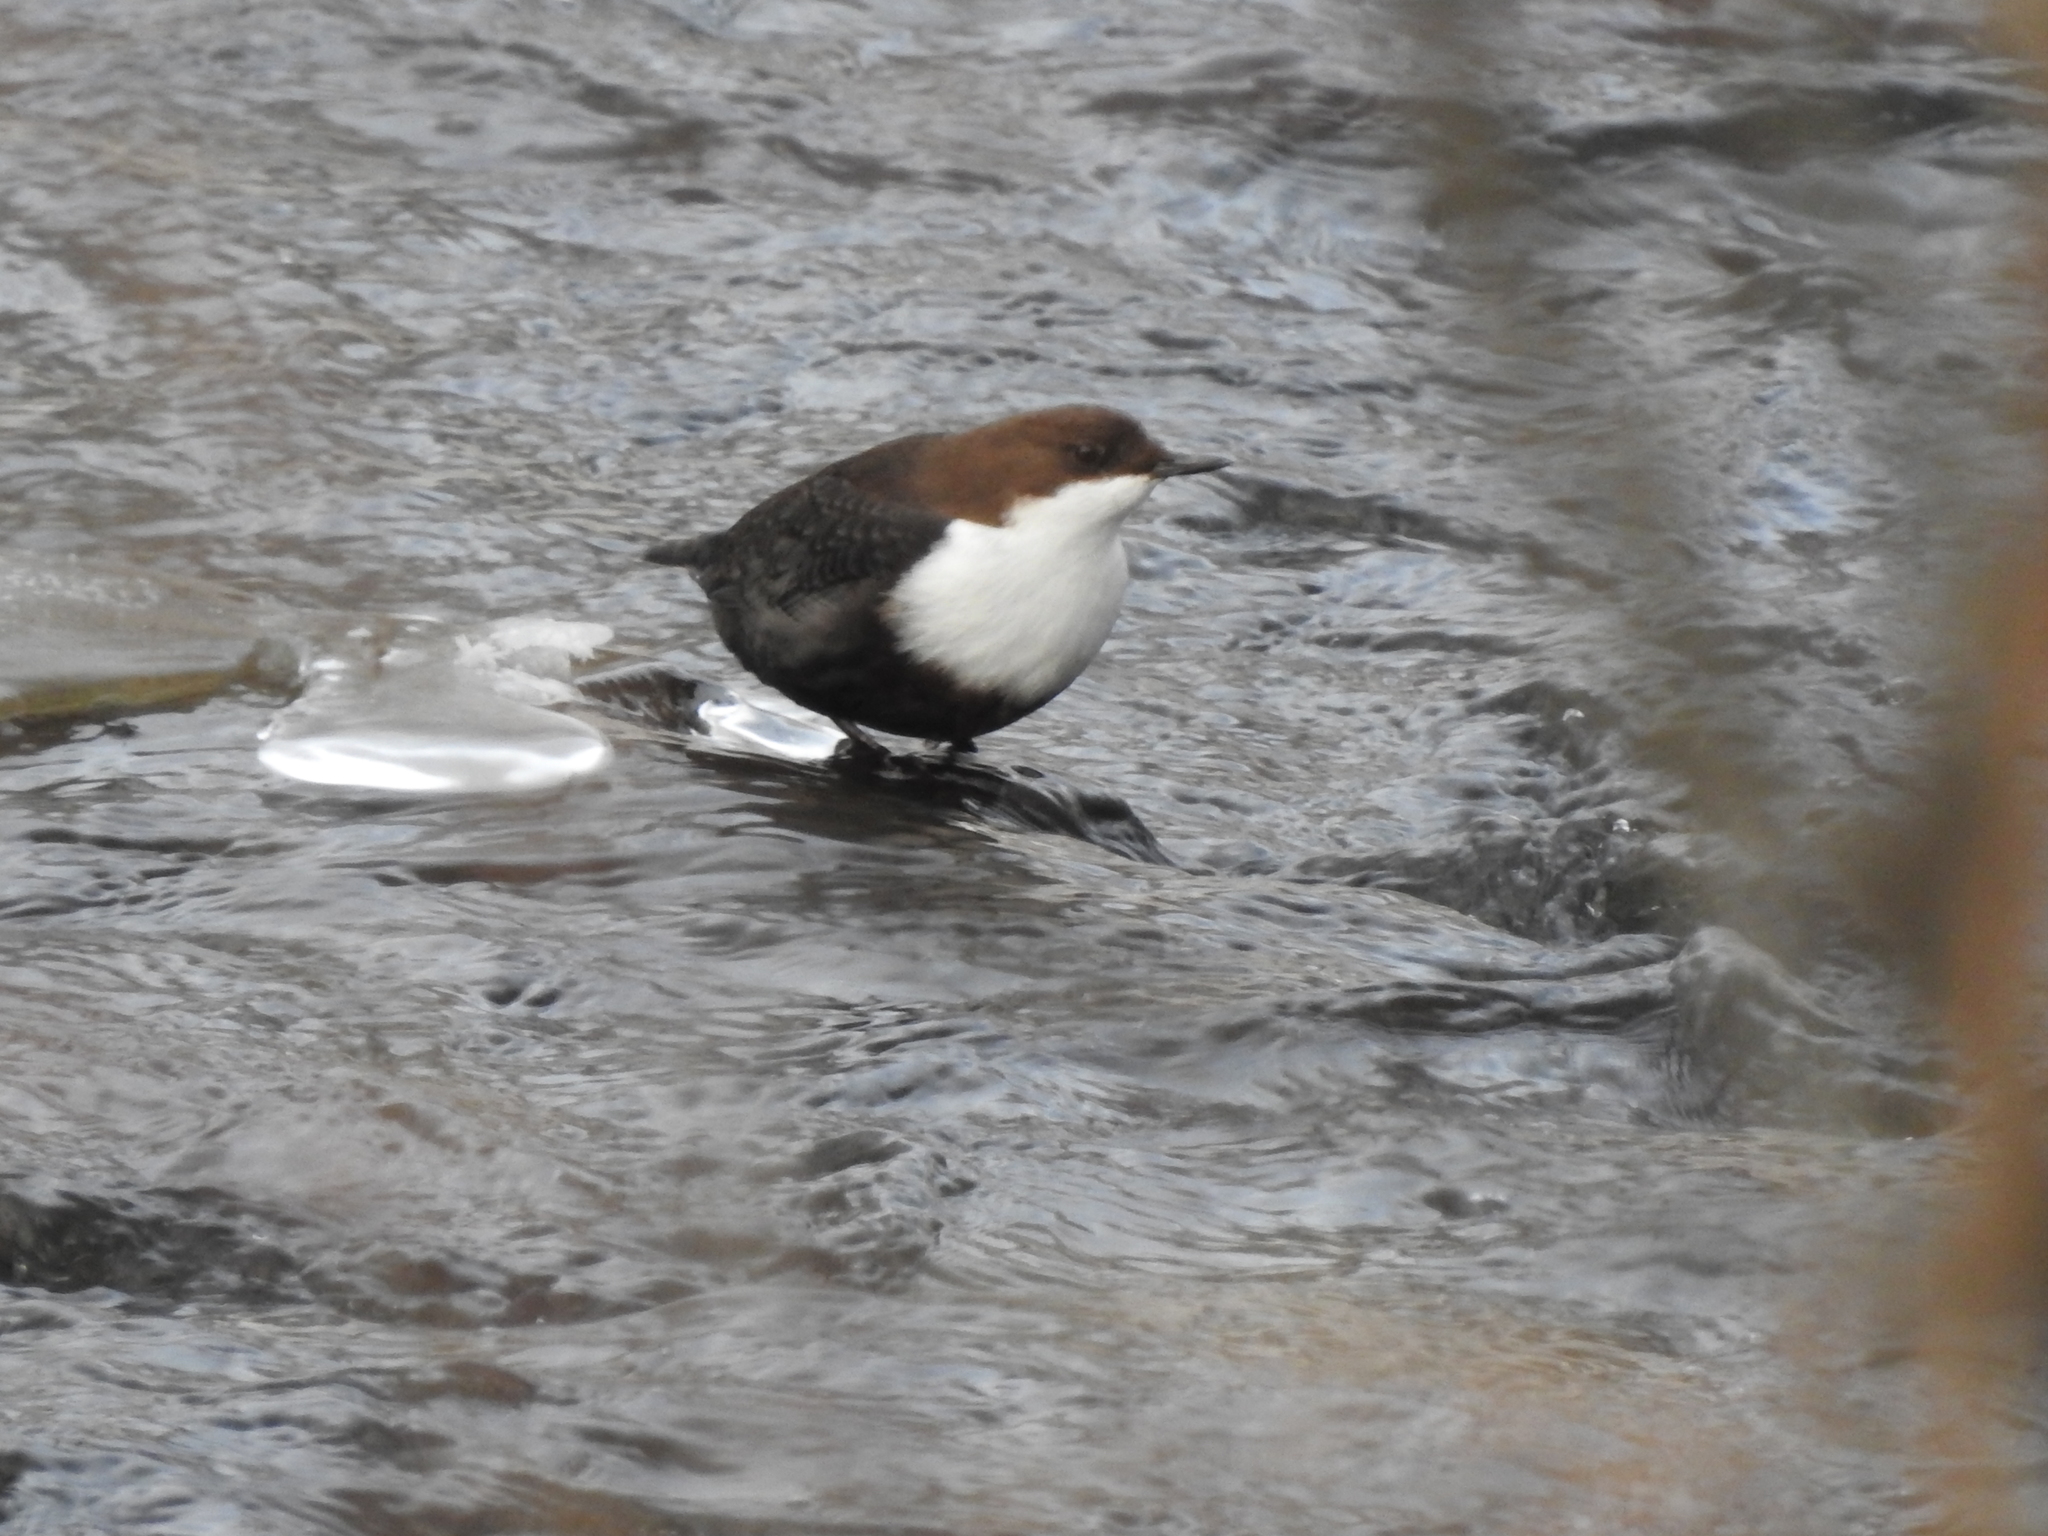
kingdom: Animalia
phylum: Chordata
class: Aves
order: Passeriformes
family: Cinclidae
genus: Cinclus
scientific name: Cinclus cinclus
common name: White-throated dipper
